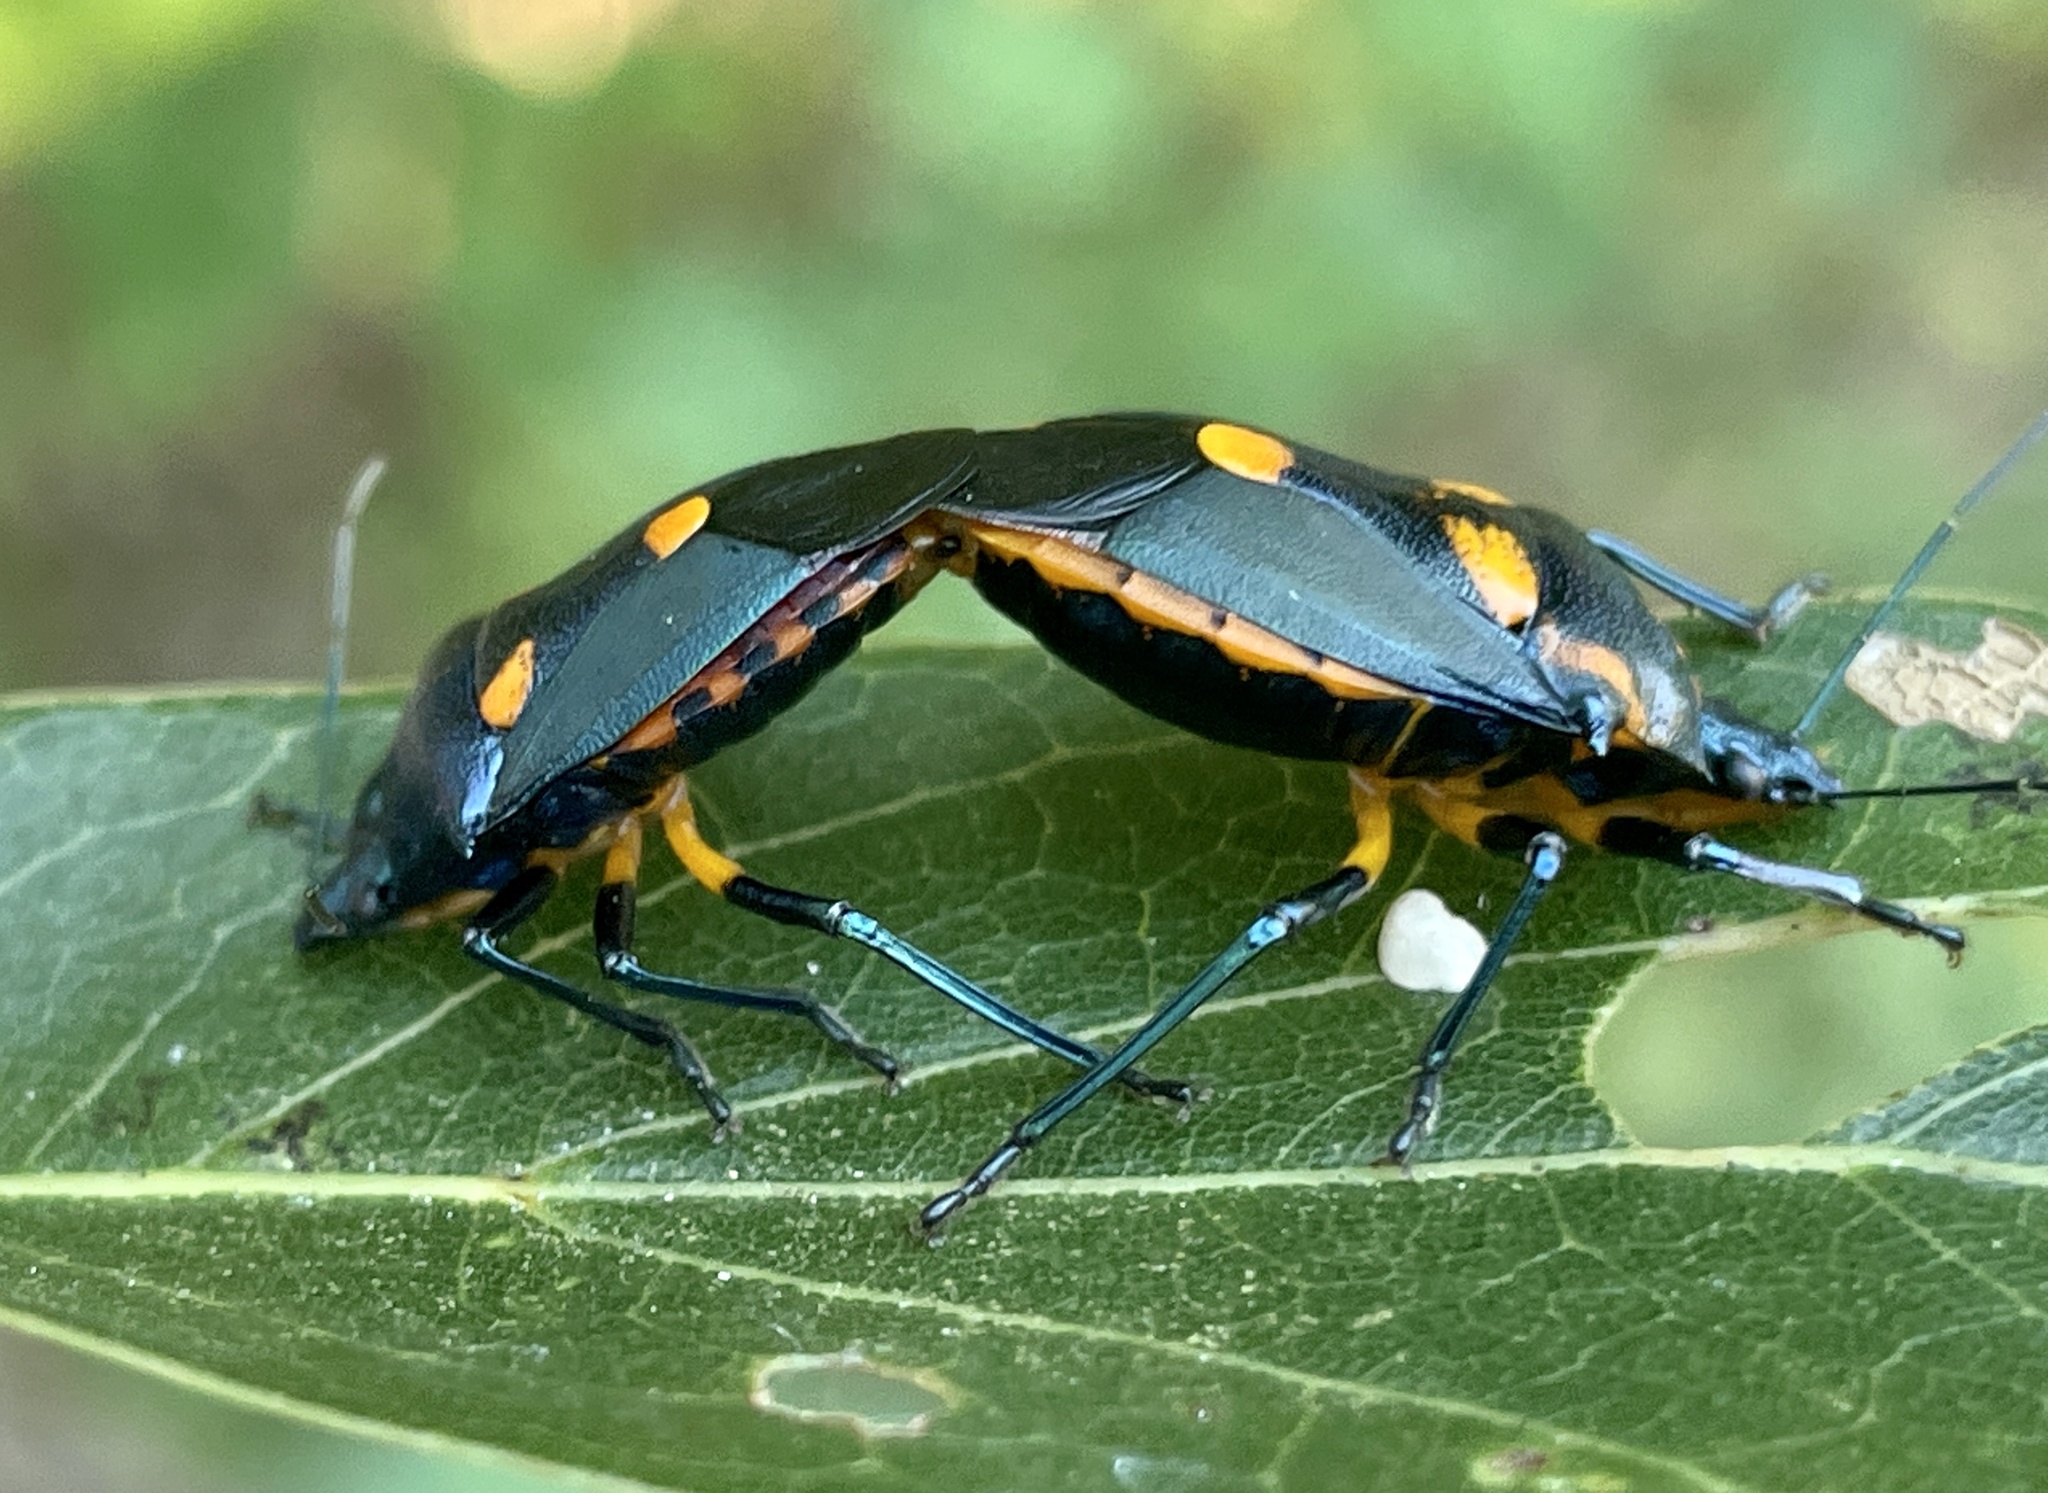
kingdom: Animalia
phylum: Arthropoda
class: Insecta
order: Hemiptera
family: Pentatomidae
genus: Euthyrhynchus
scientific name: Euthyrhynchus floridanus
